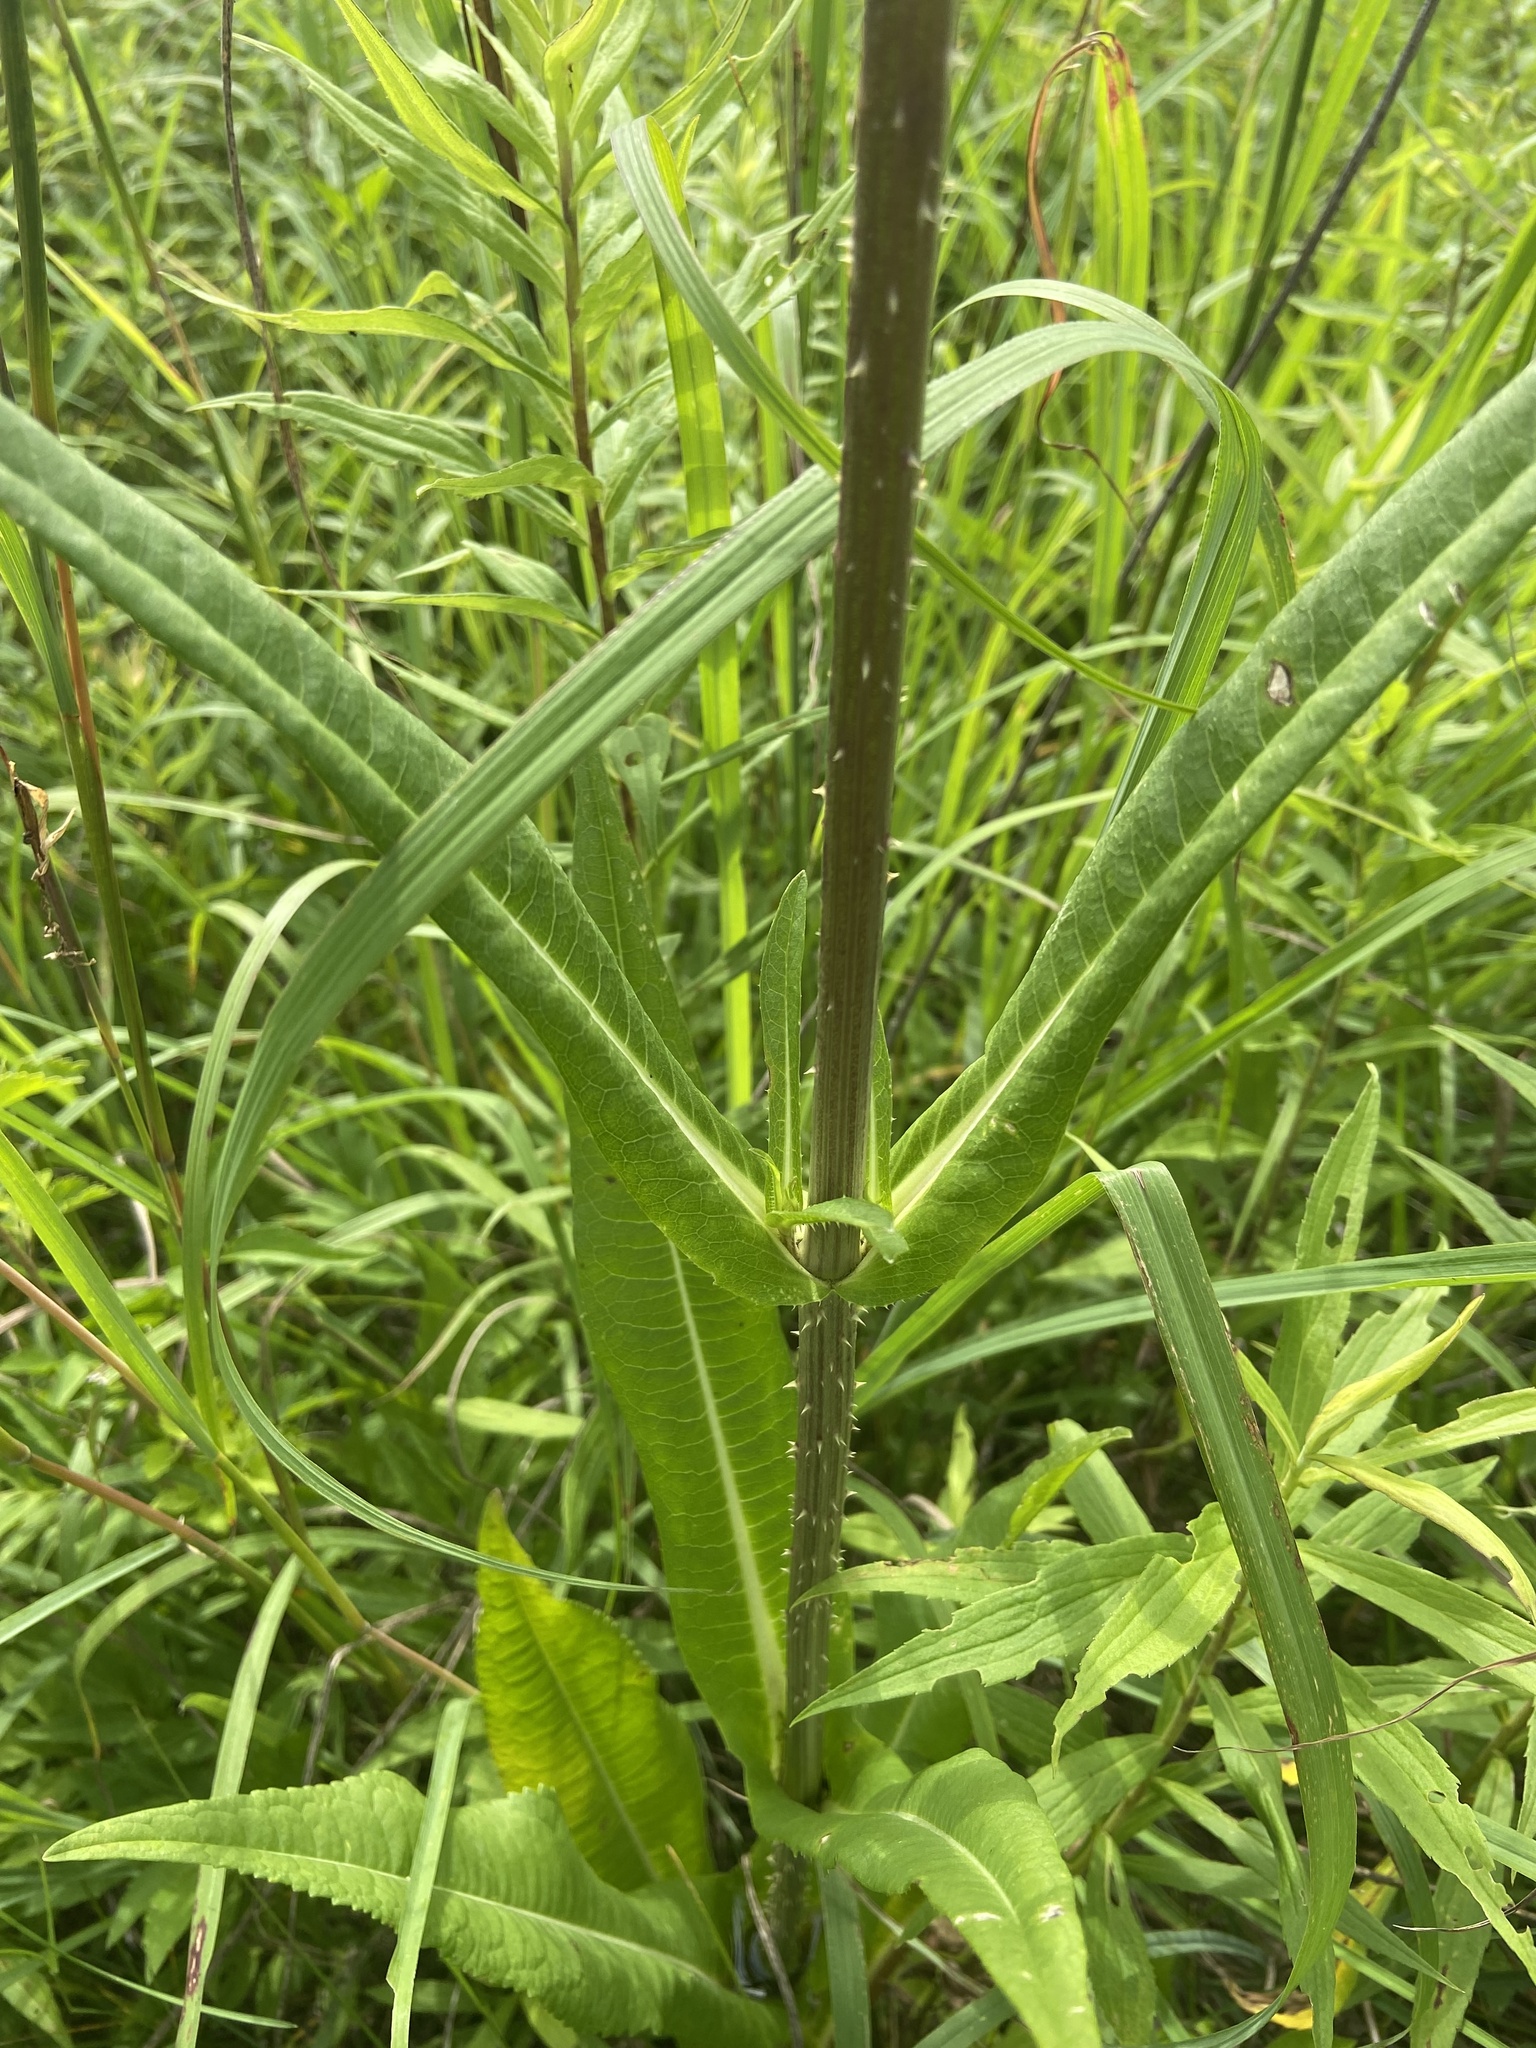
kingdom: Plantae
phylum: Tracheophyta
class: Magnoliopsida
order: Dipsacales
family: Caprifoliaceae
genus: Dipsacus
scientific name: Dipsacus fullonum
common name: Teasel
